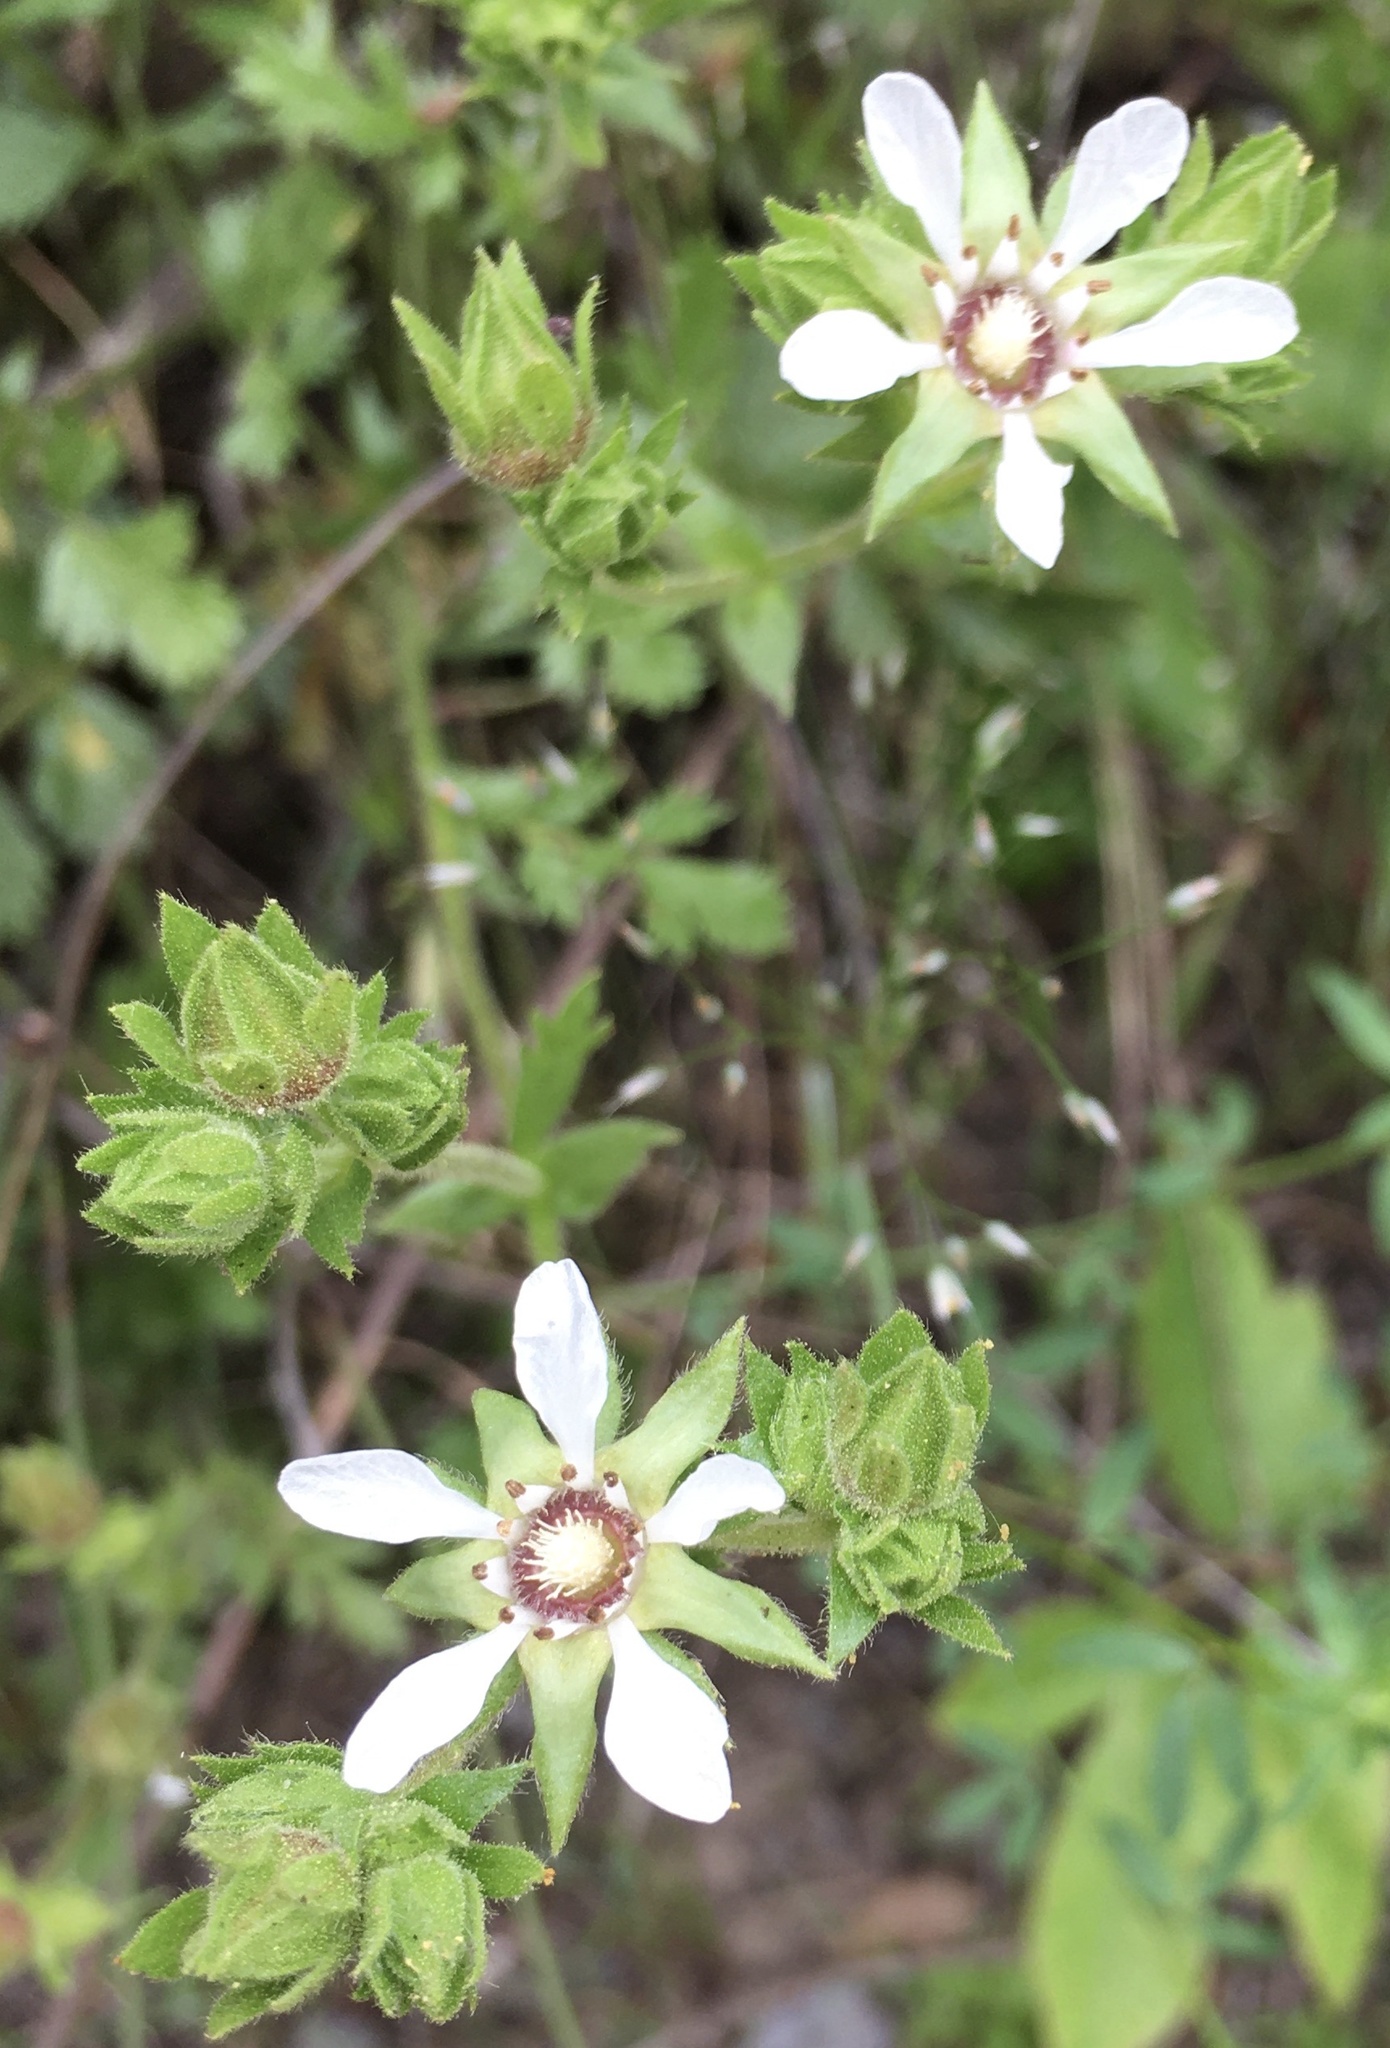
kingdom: Plantae
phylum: Tracheophyta
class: Magnoliopsida
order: Rosales
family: Rosaceae
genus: Potentilla
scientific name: Potentilla
